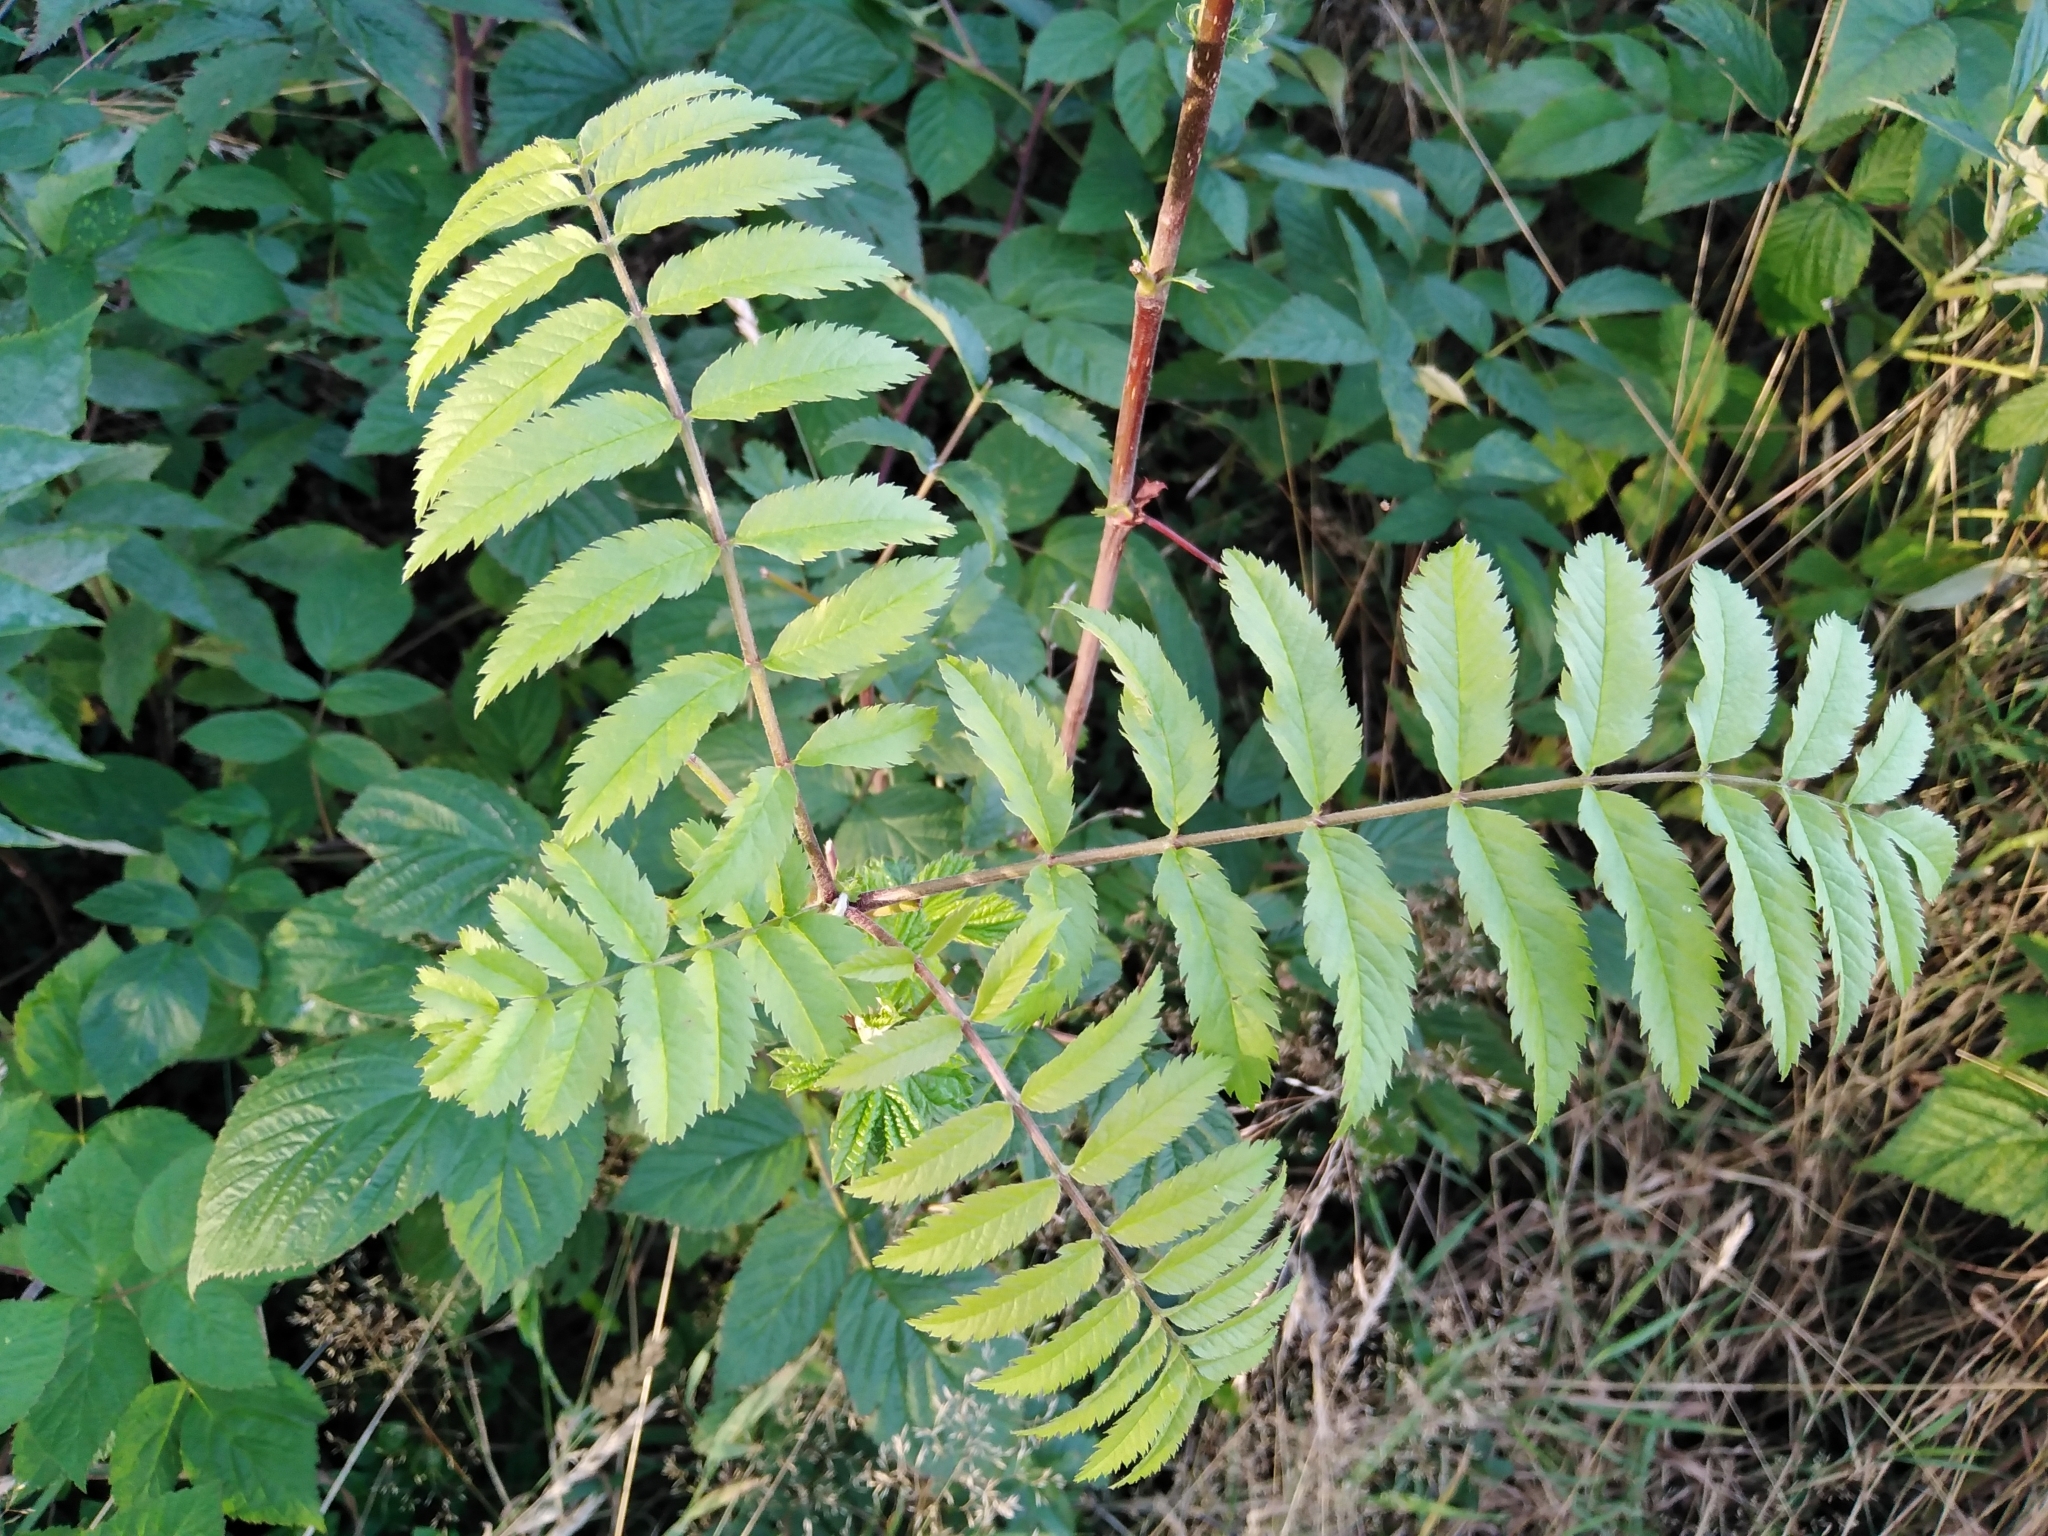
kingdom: Plantae
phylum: Tracheophyta
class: Magnoliopsida
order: Rosales
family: Rosaceae
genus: Sorbus
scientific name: Sorbus aucuparia
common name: Rowan
